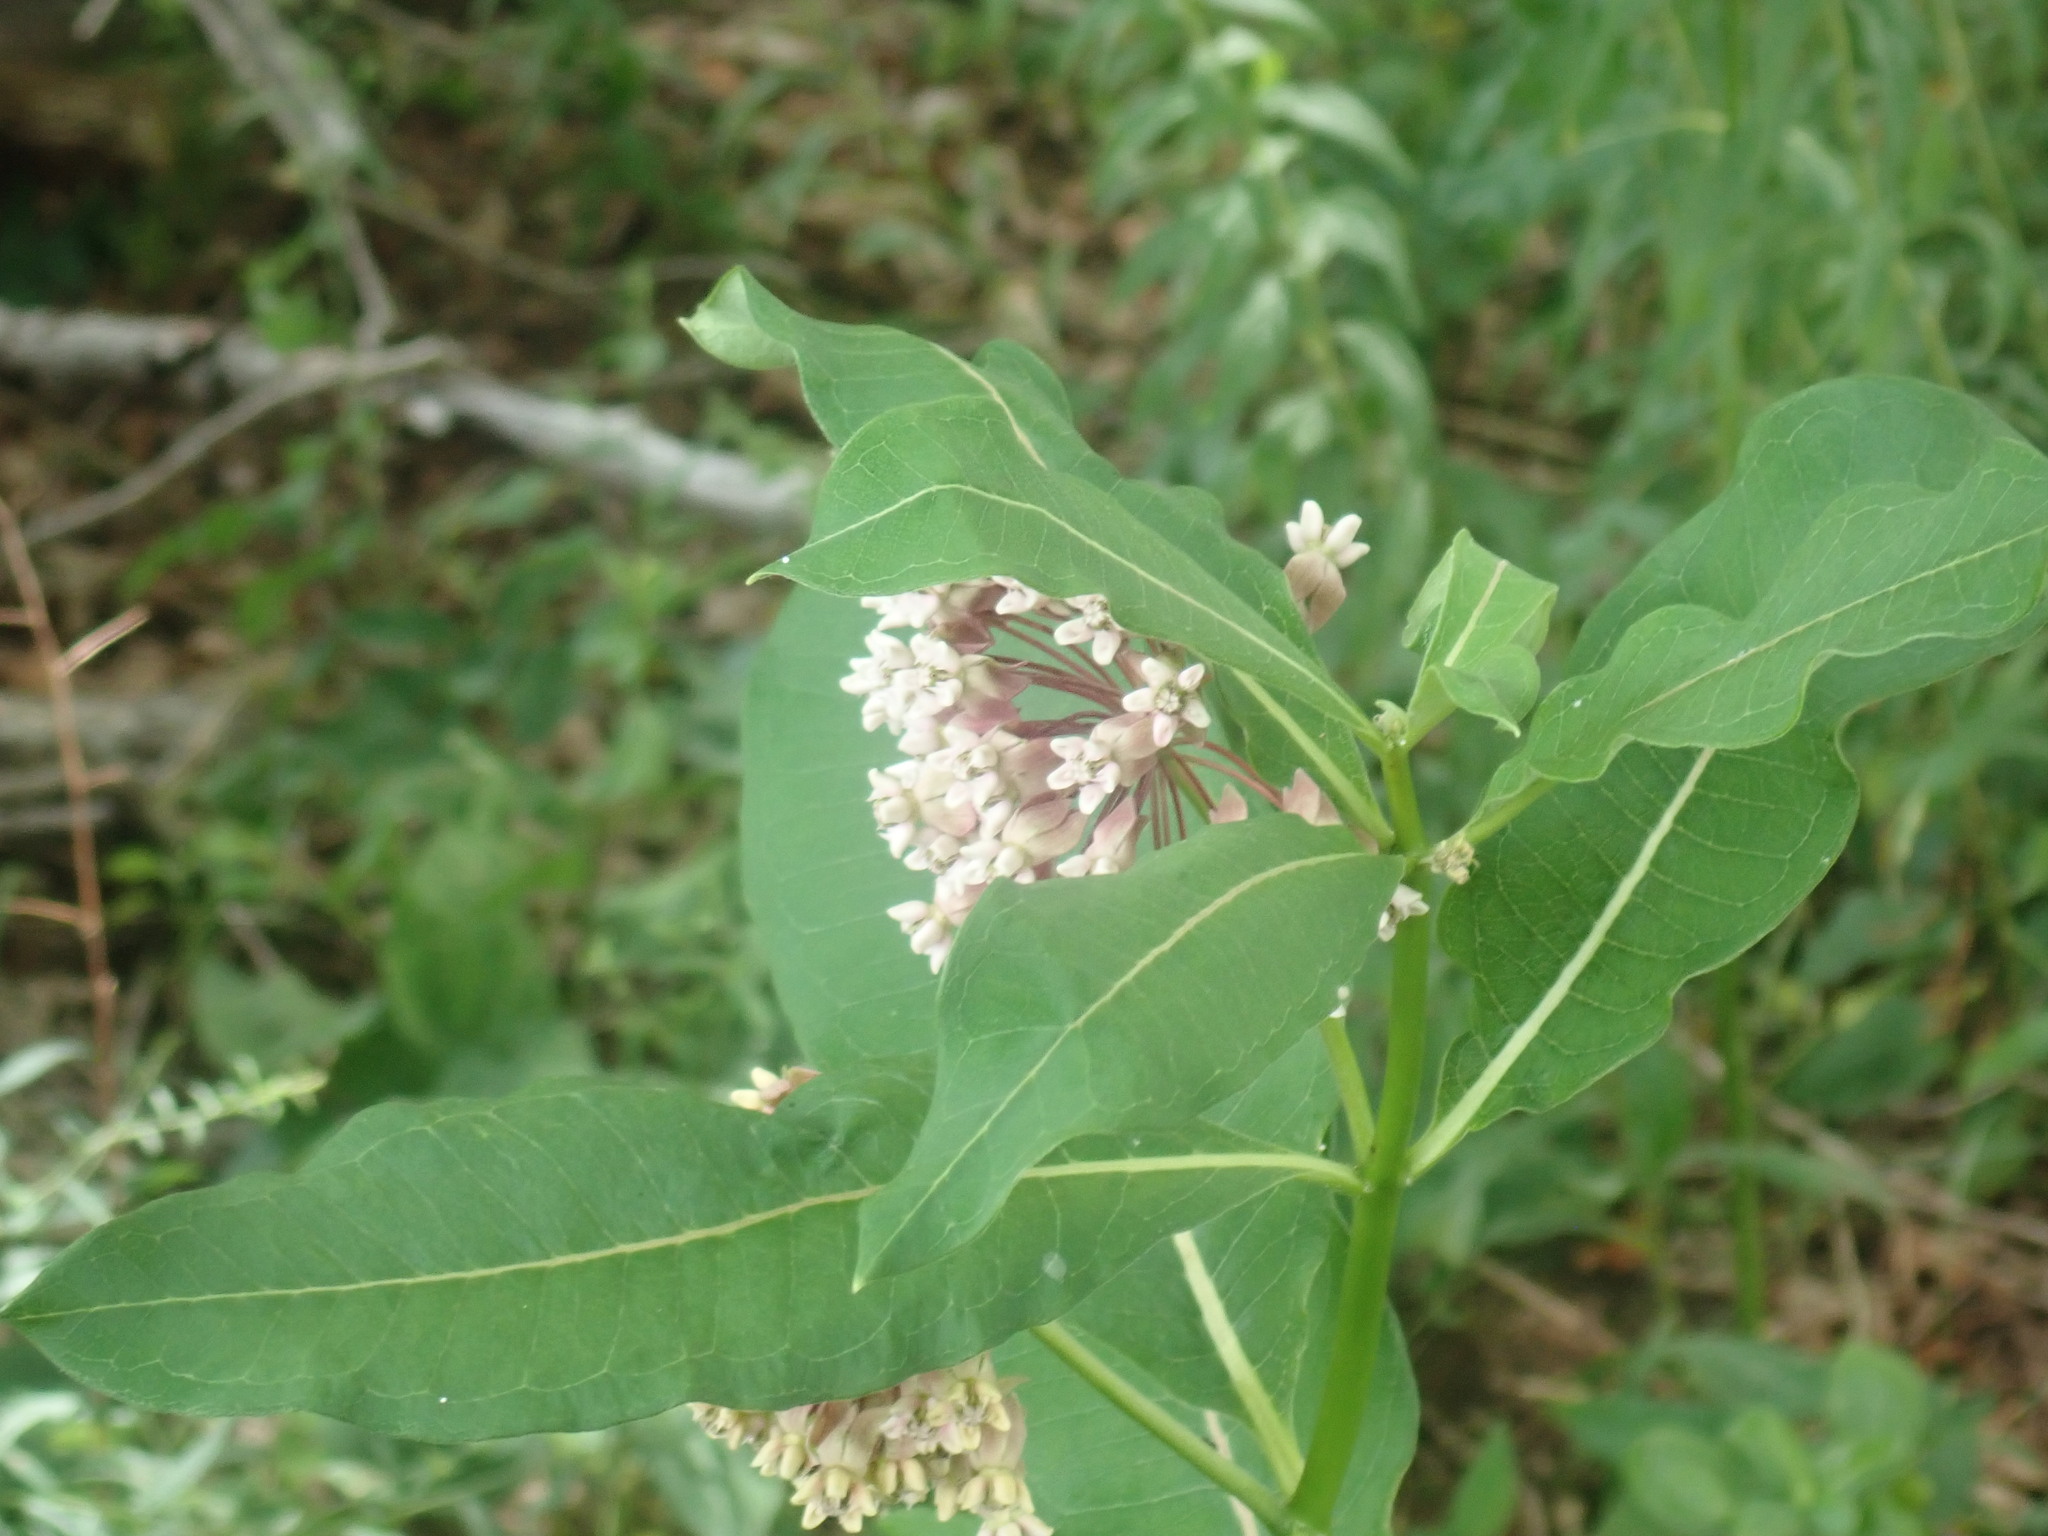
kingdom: Plantae
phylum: Tracheophyta
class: Magnoliopsida
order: Gentianales
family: Apocynaceae
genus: Asclepias
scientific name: Asclepias syriaca
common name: Common milkweed
